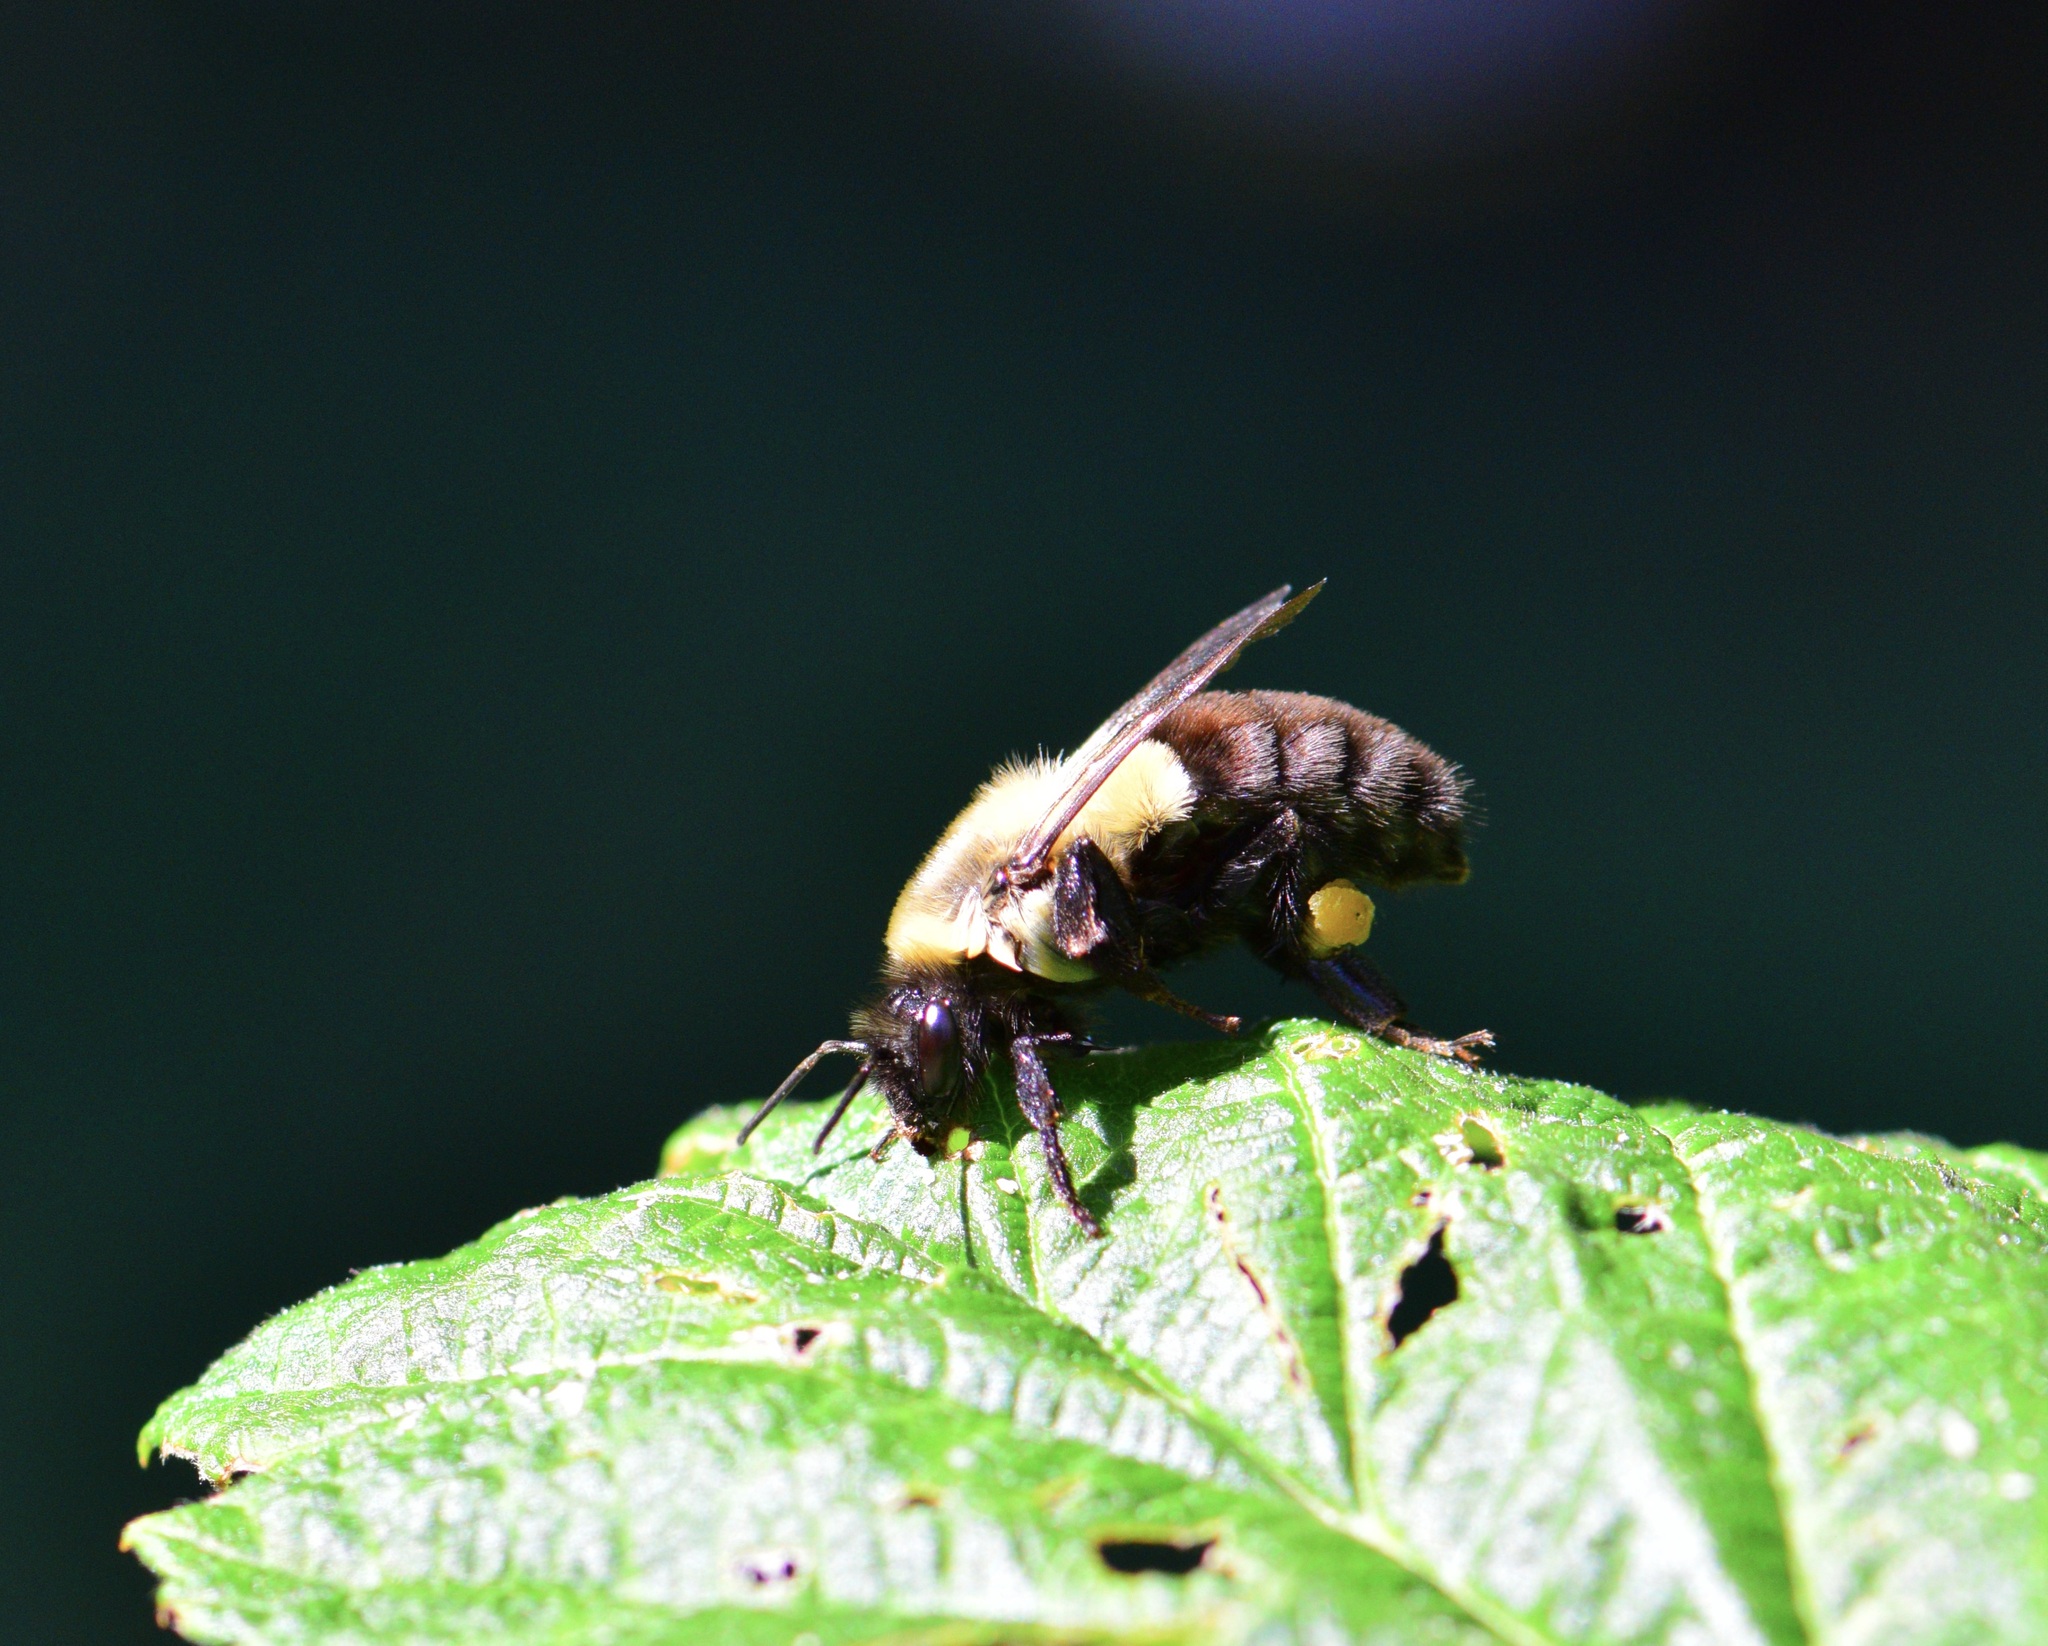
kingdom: Animalia
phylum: Arthropoda
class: Insecta
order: Hymenoptera
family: Apidae
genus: Bombus
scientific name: Bombus impatiens
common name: Common eastern bumble bee
